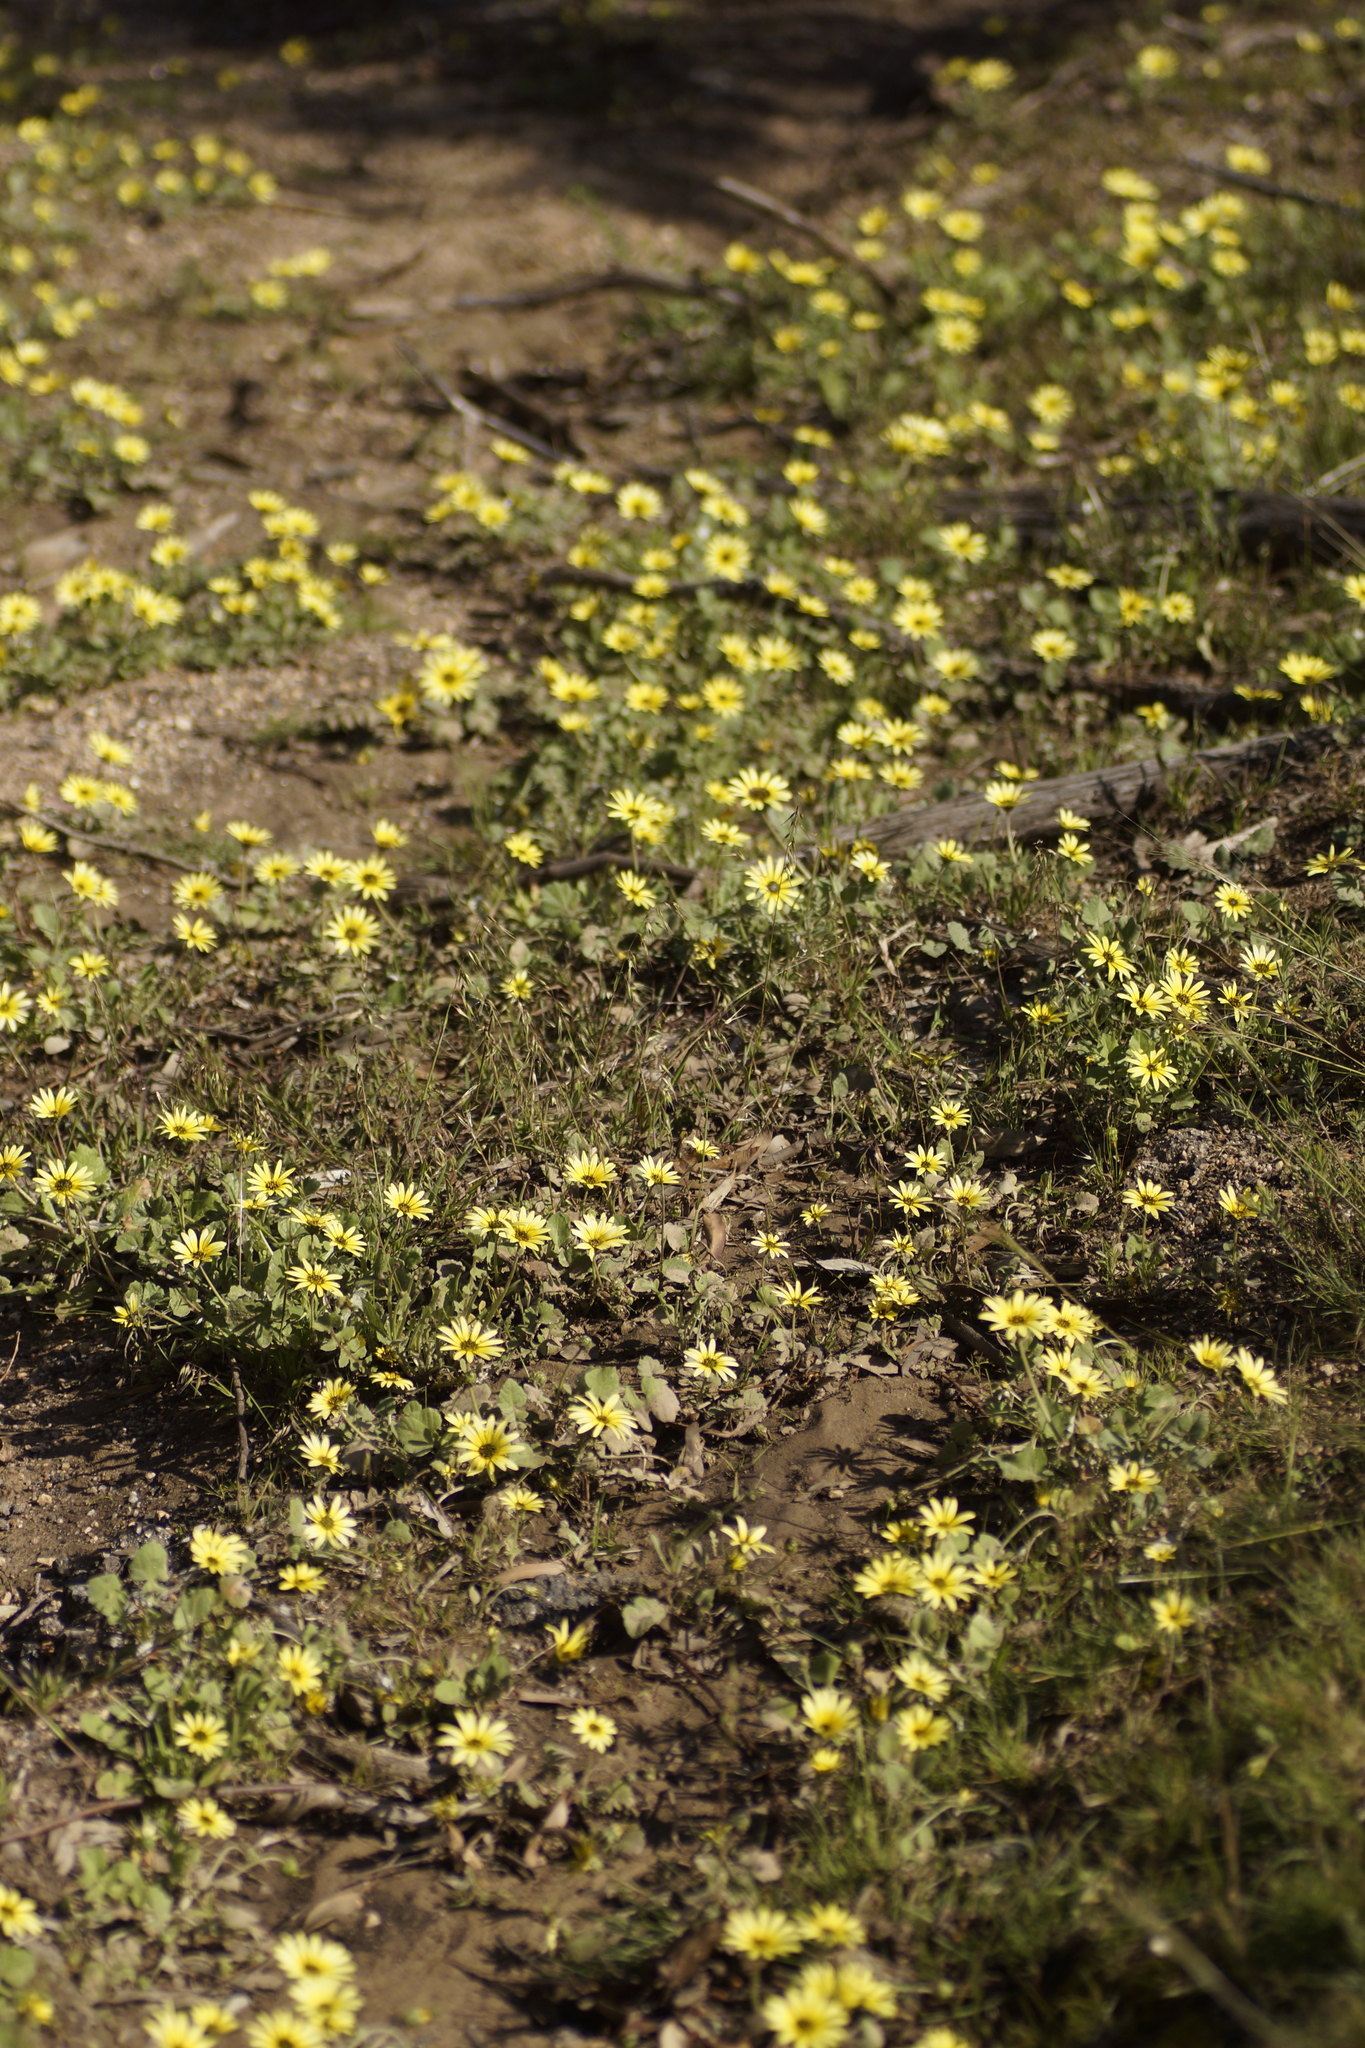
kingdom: Plantae
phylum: Tracheophyta
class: Magnoliopsida
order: Asterales
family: Asteraceae
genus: Arctotheca
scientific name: Arctotheca calendula
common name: Capeweed
